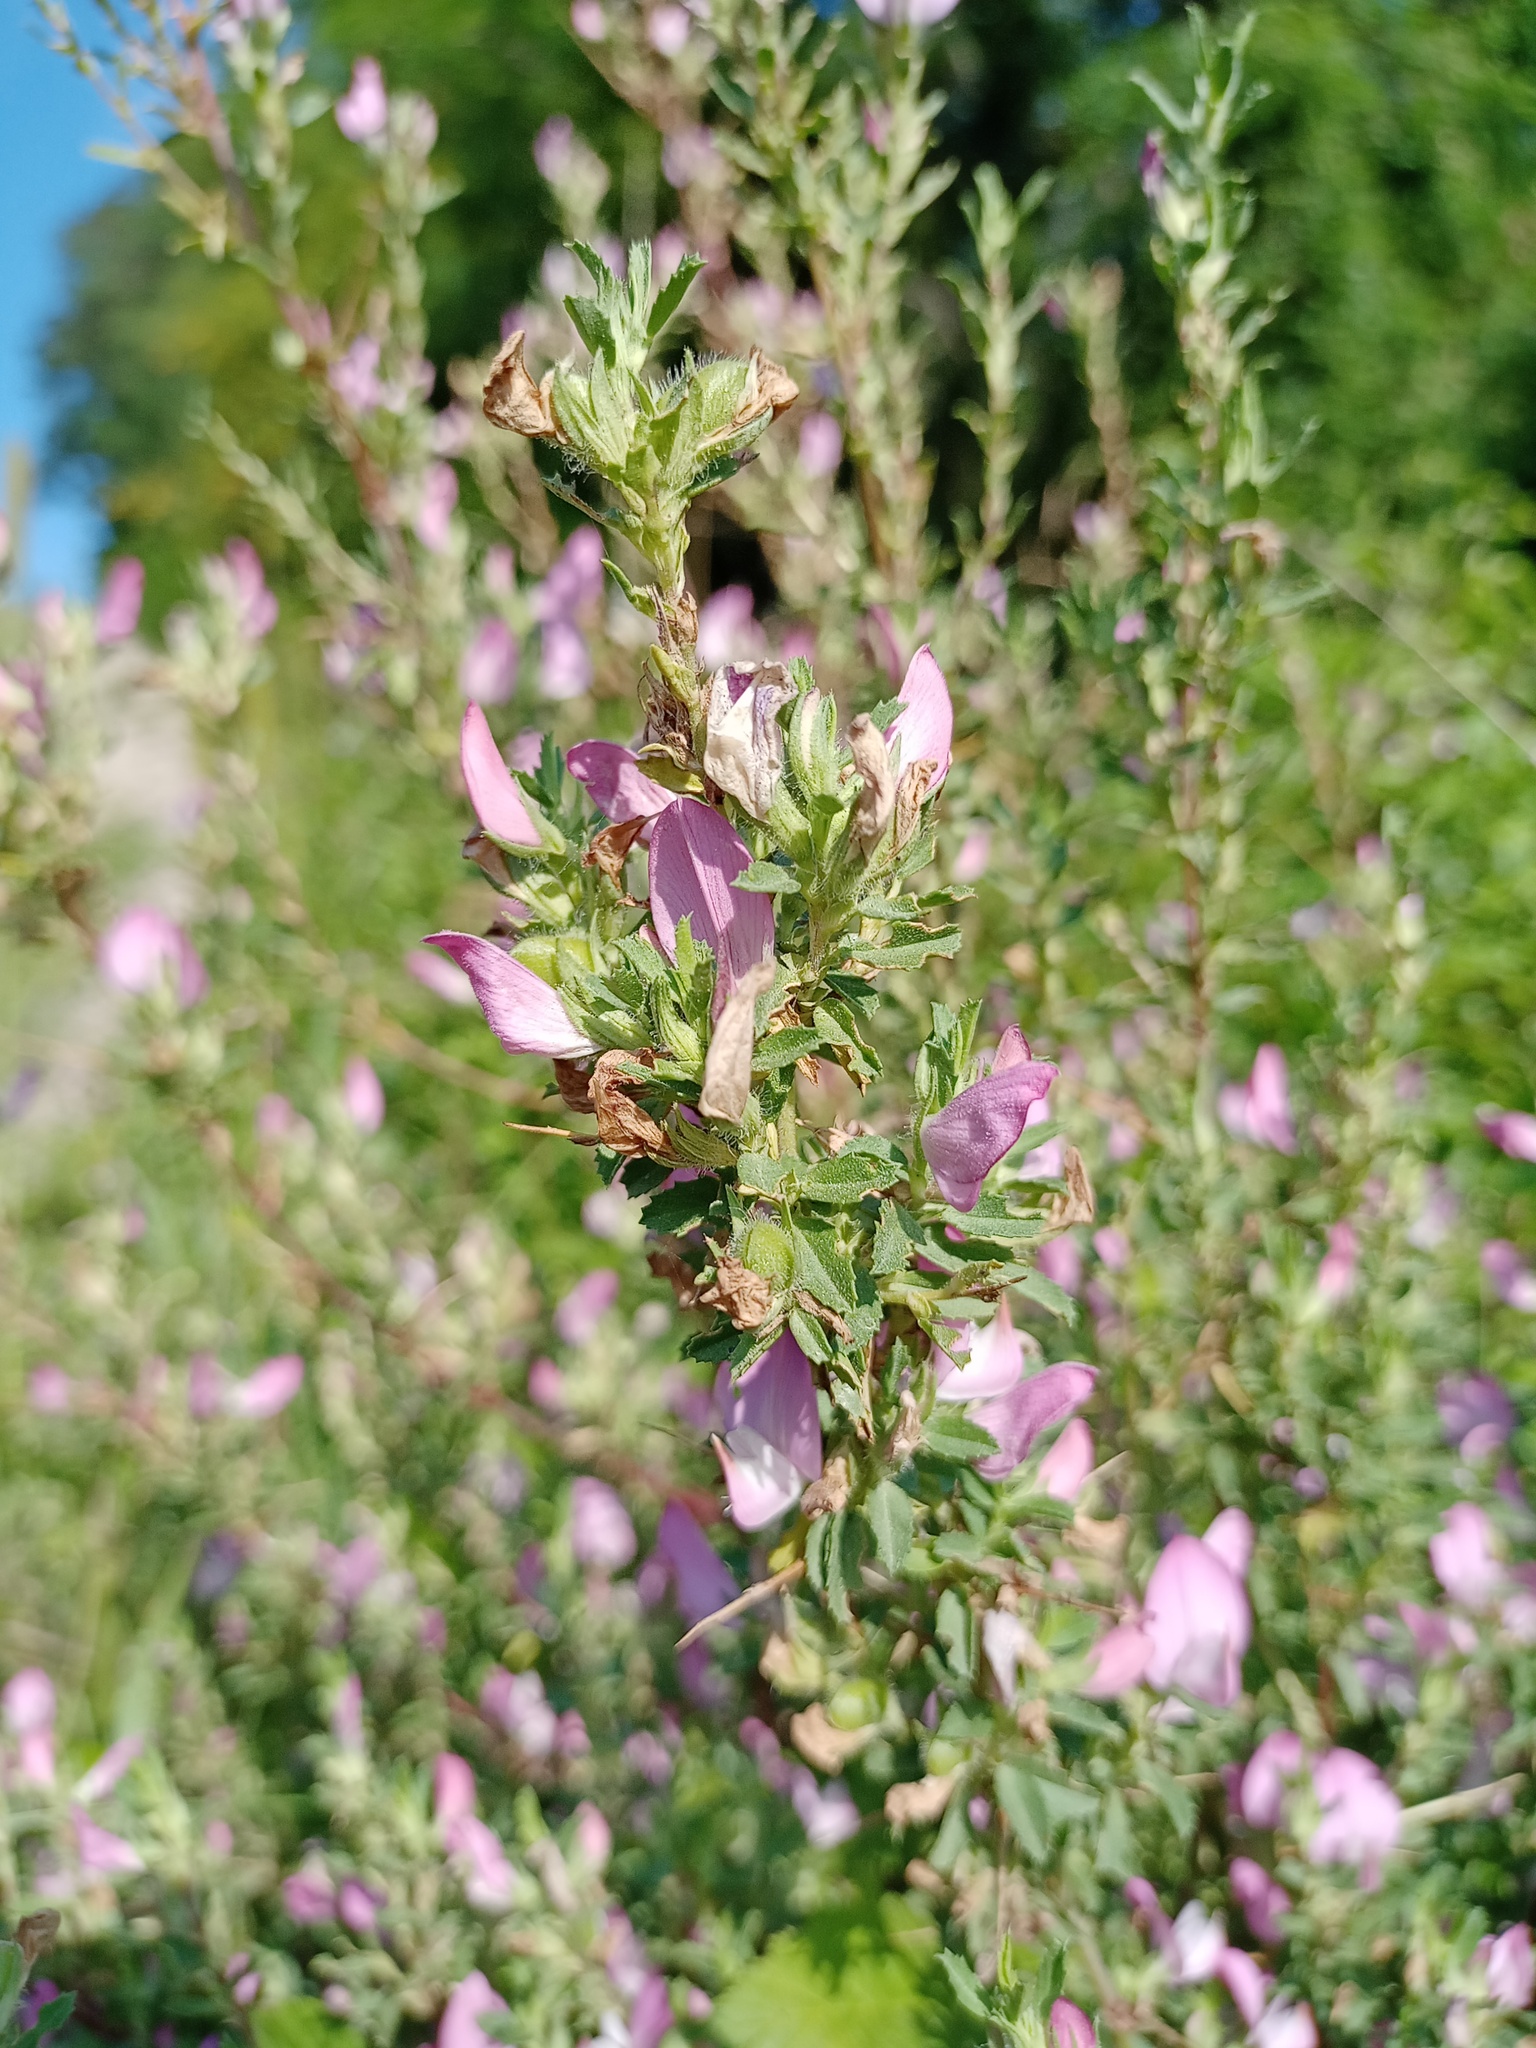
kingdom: Plantae
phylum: Tracheophyta
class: Magnoliopsida
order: Fabales
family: Fabaceae
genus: Ononis
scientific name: Ononis spinosa
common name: Spiny restharrow
